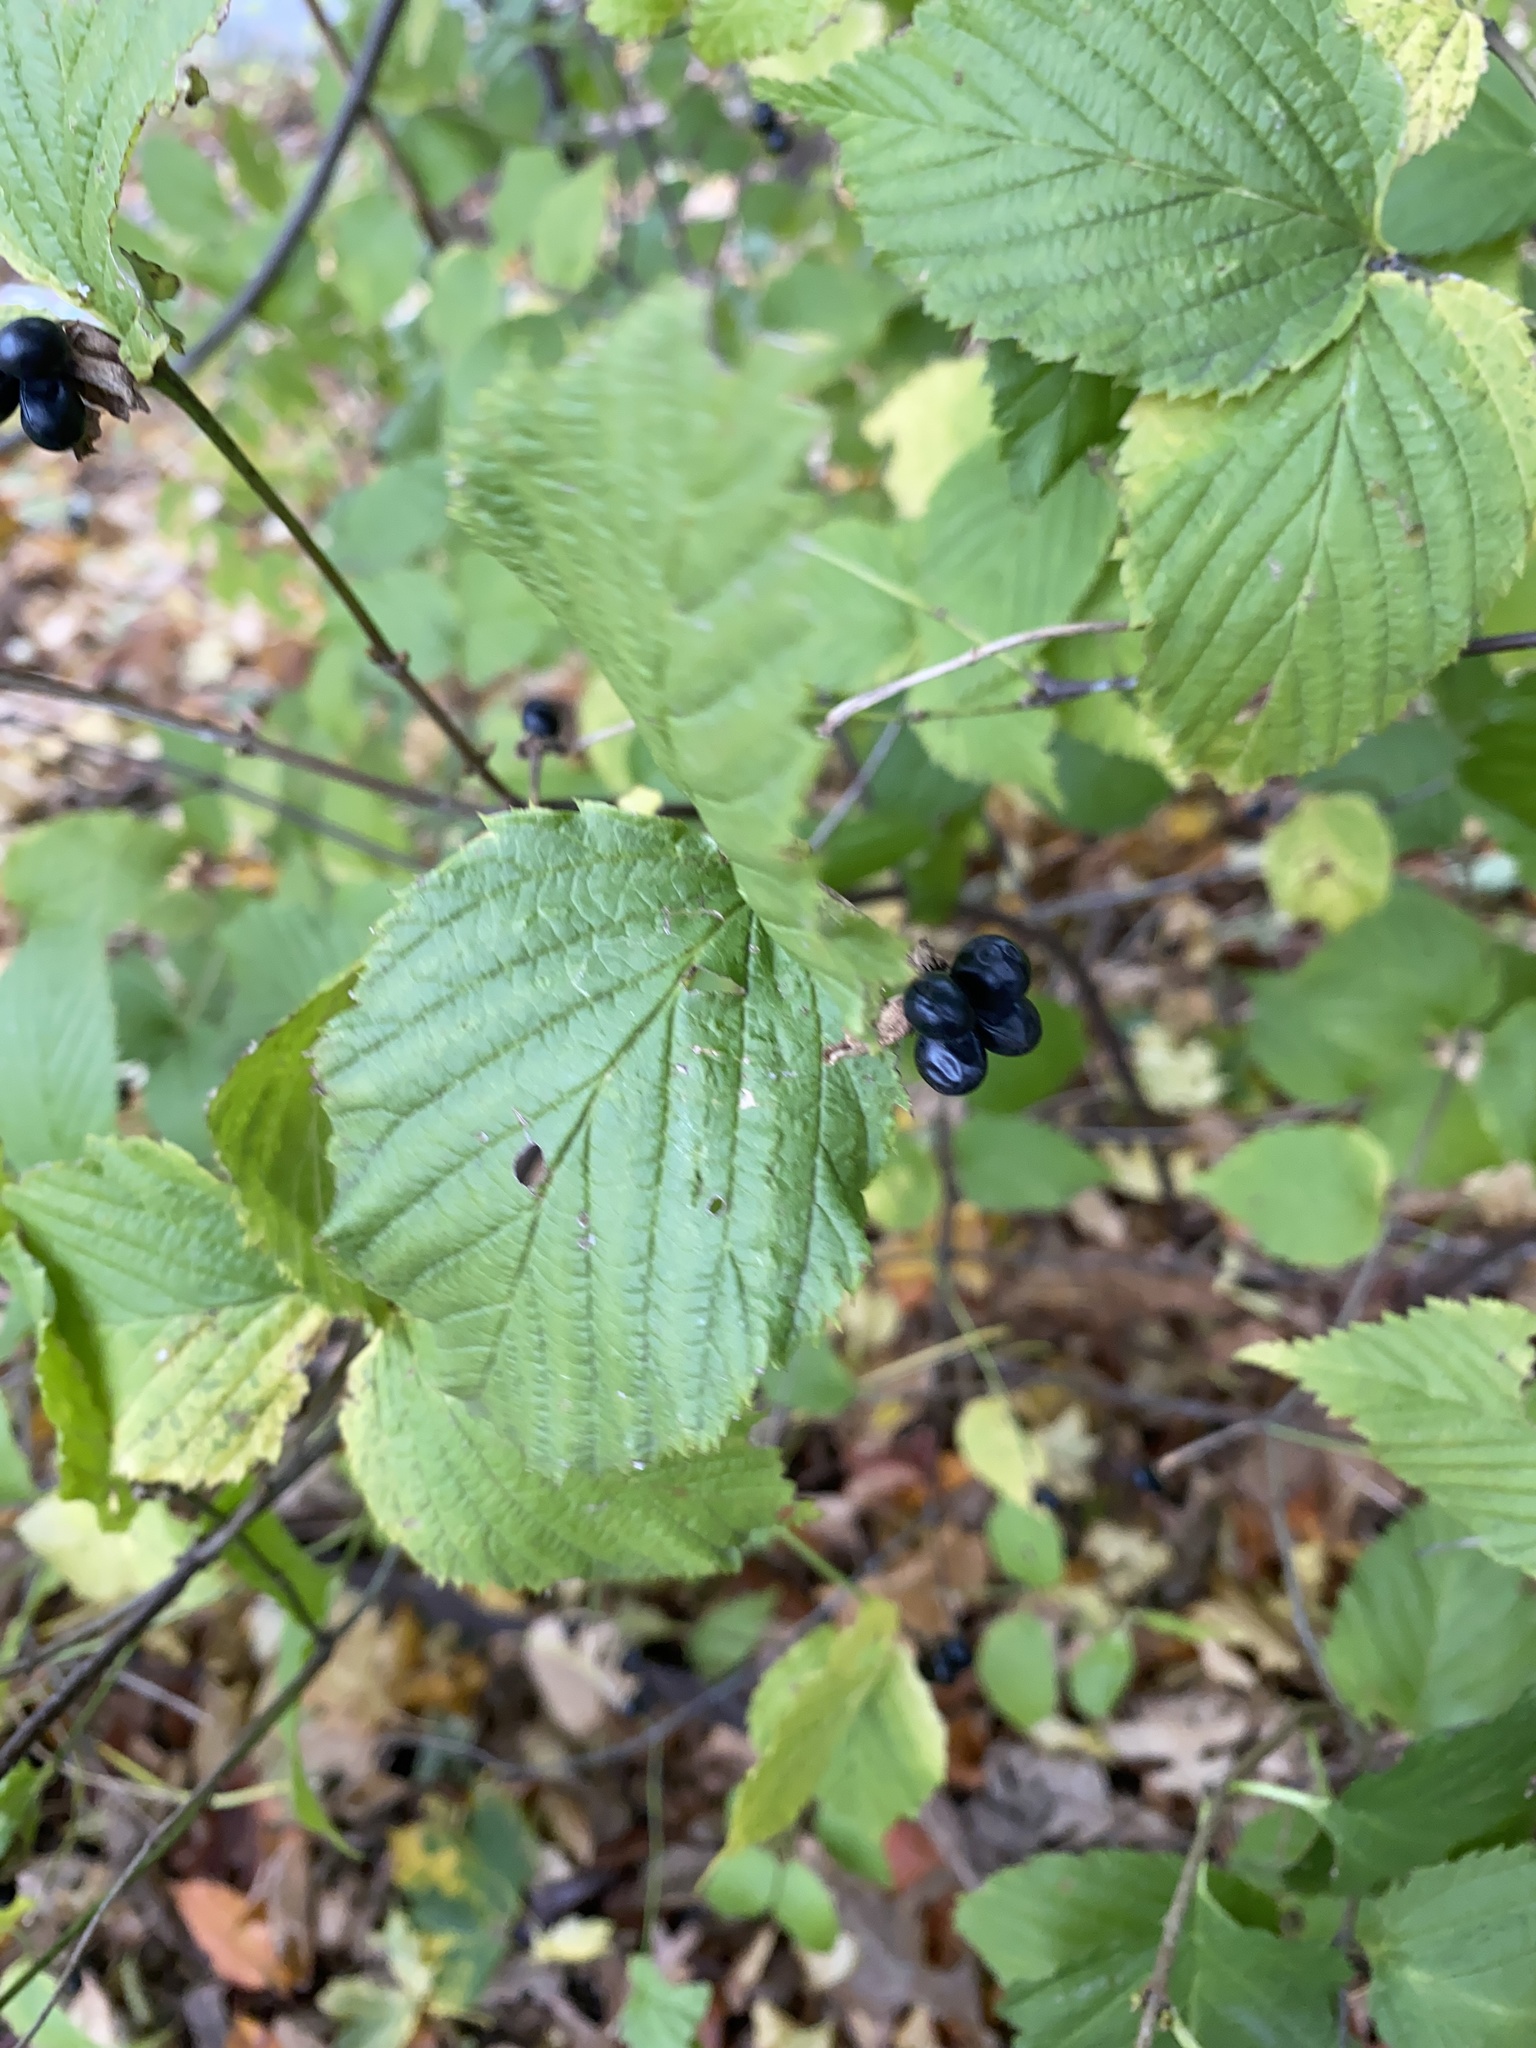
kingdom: Plantae
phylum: Tracheophyta
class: Magnoliopsida
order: Rosales
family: Rosaceae
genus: Rhodotypos
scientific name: Rhodotypos scandens
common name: Jetbead
